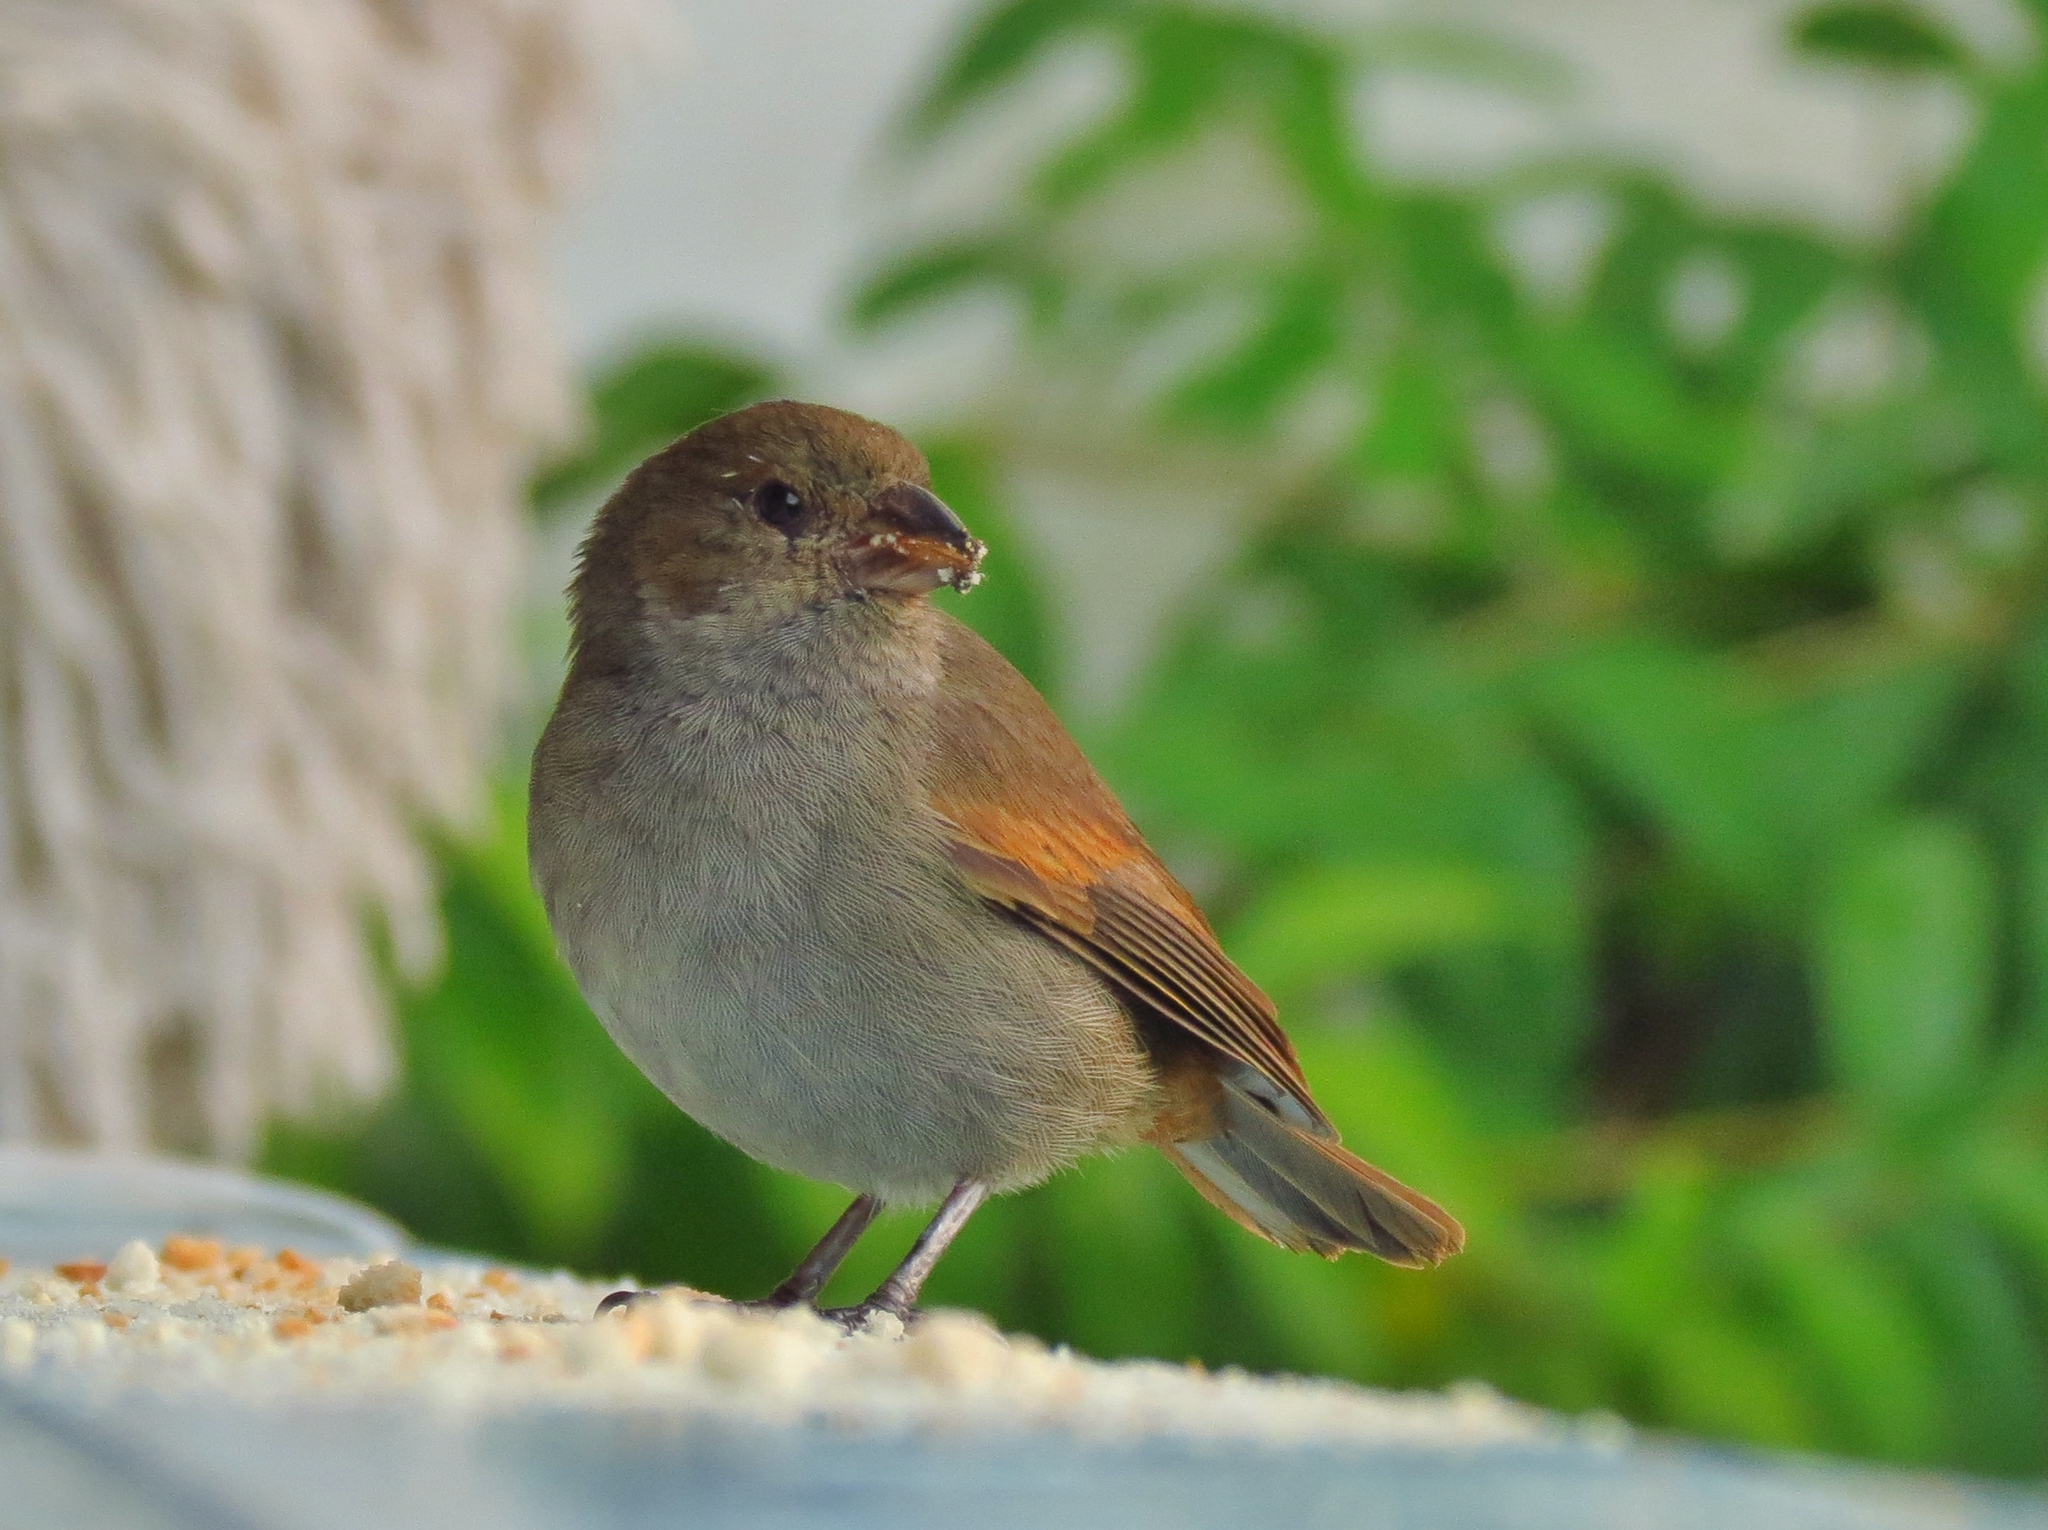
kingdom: Animalia
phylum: Chordata
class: Aves
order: Passeriformes
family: Thraupidae
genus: Loxigilla
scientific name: Loxigilla noctis
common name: Lesser antillean bullfinch
